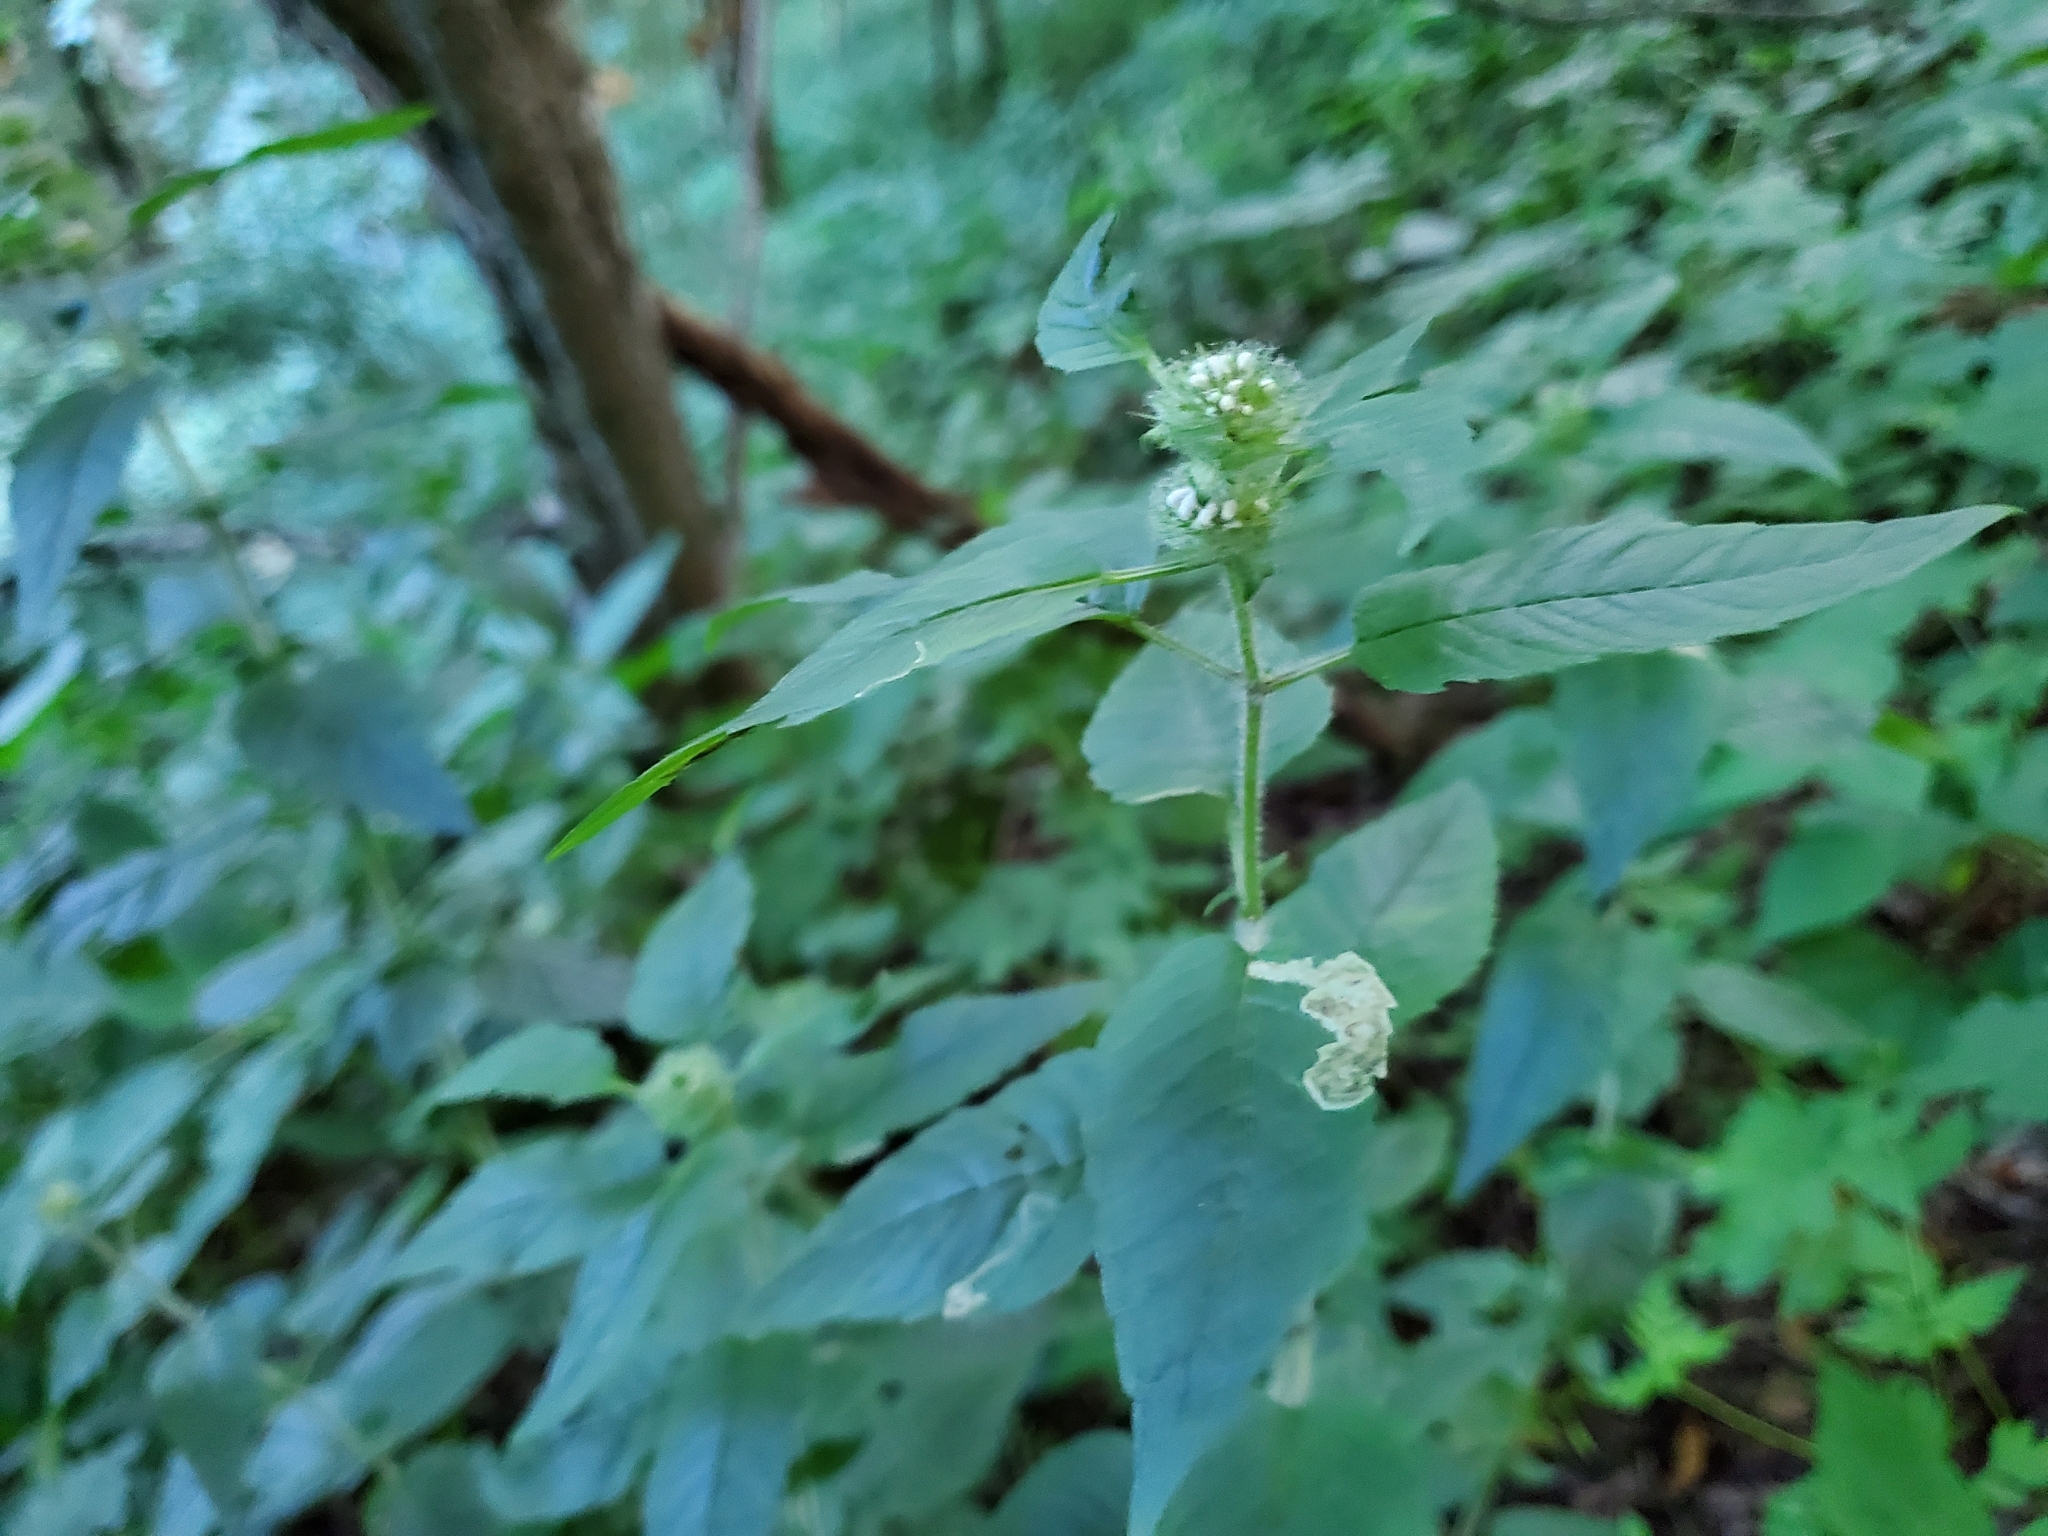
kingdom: Plantae
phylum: Tracheophyta
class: Magnoliopsida
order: Lamiales
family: Lamiaceae
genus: Blephilia
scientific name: Blephilia hirsuta
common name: Hairy blephilia
